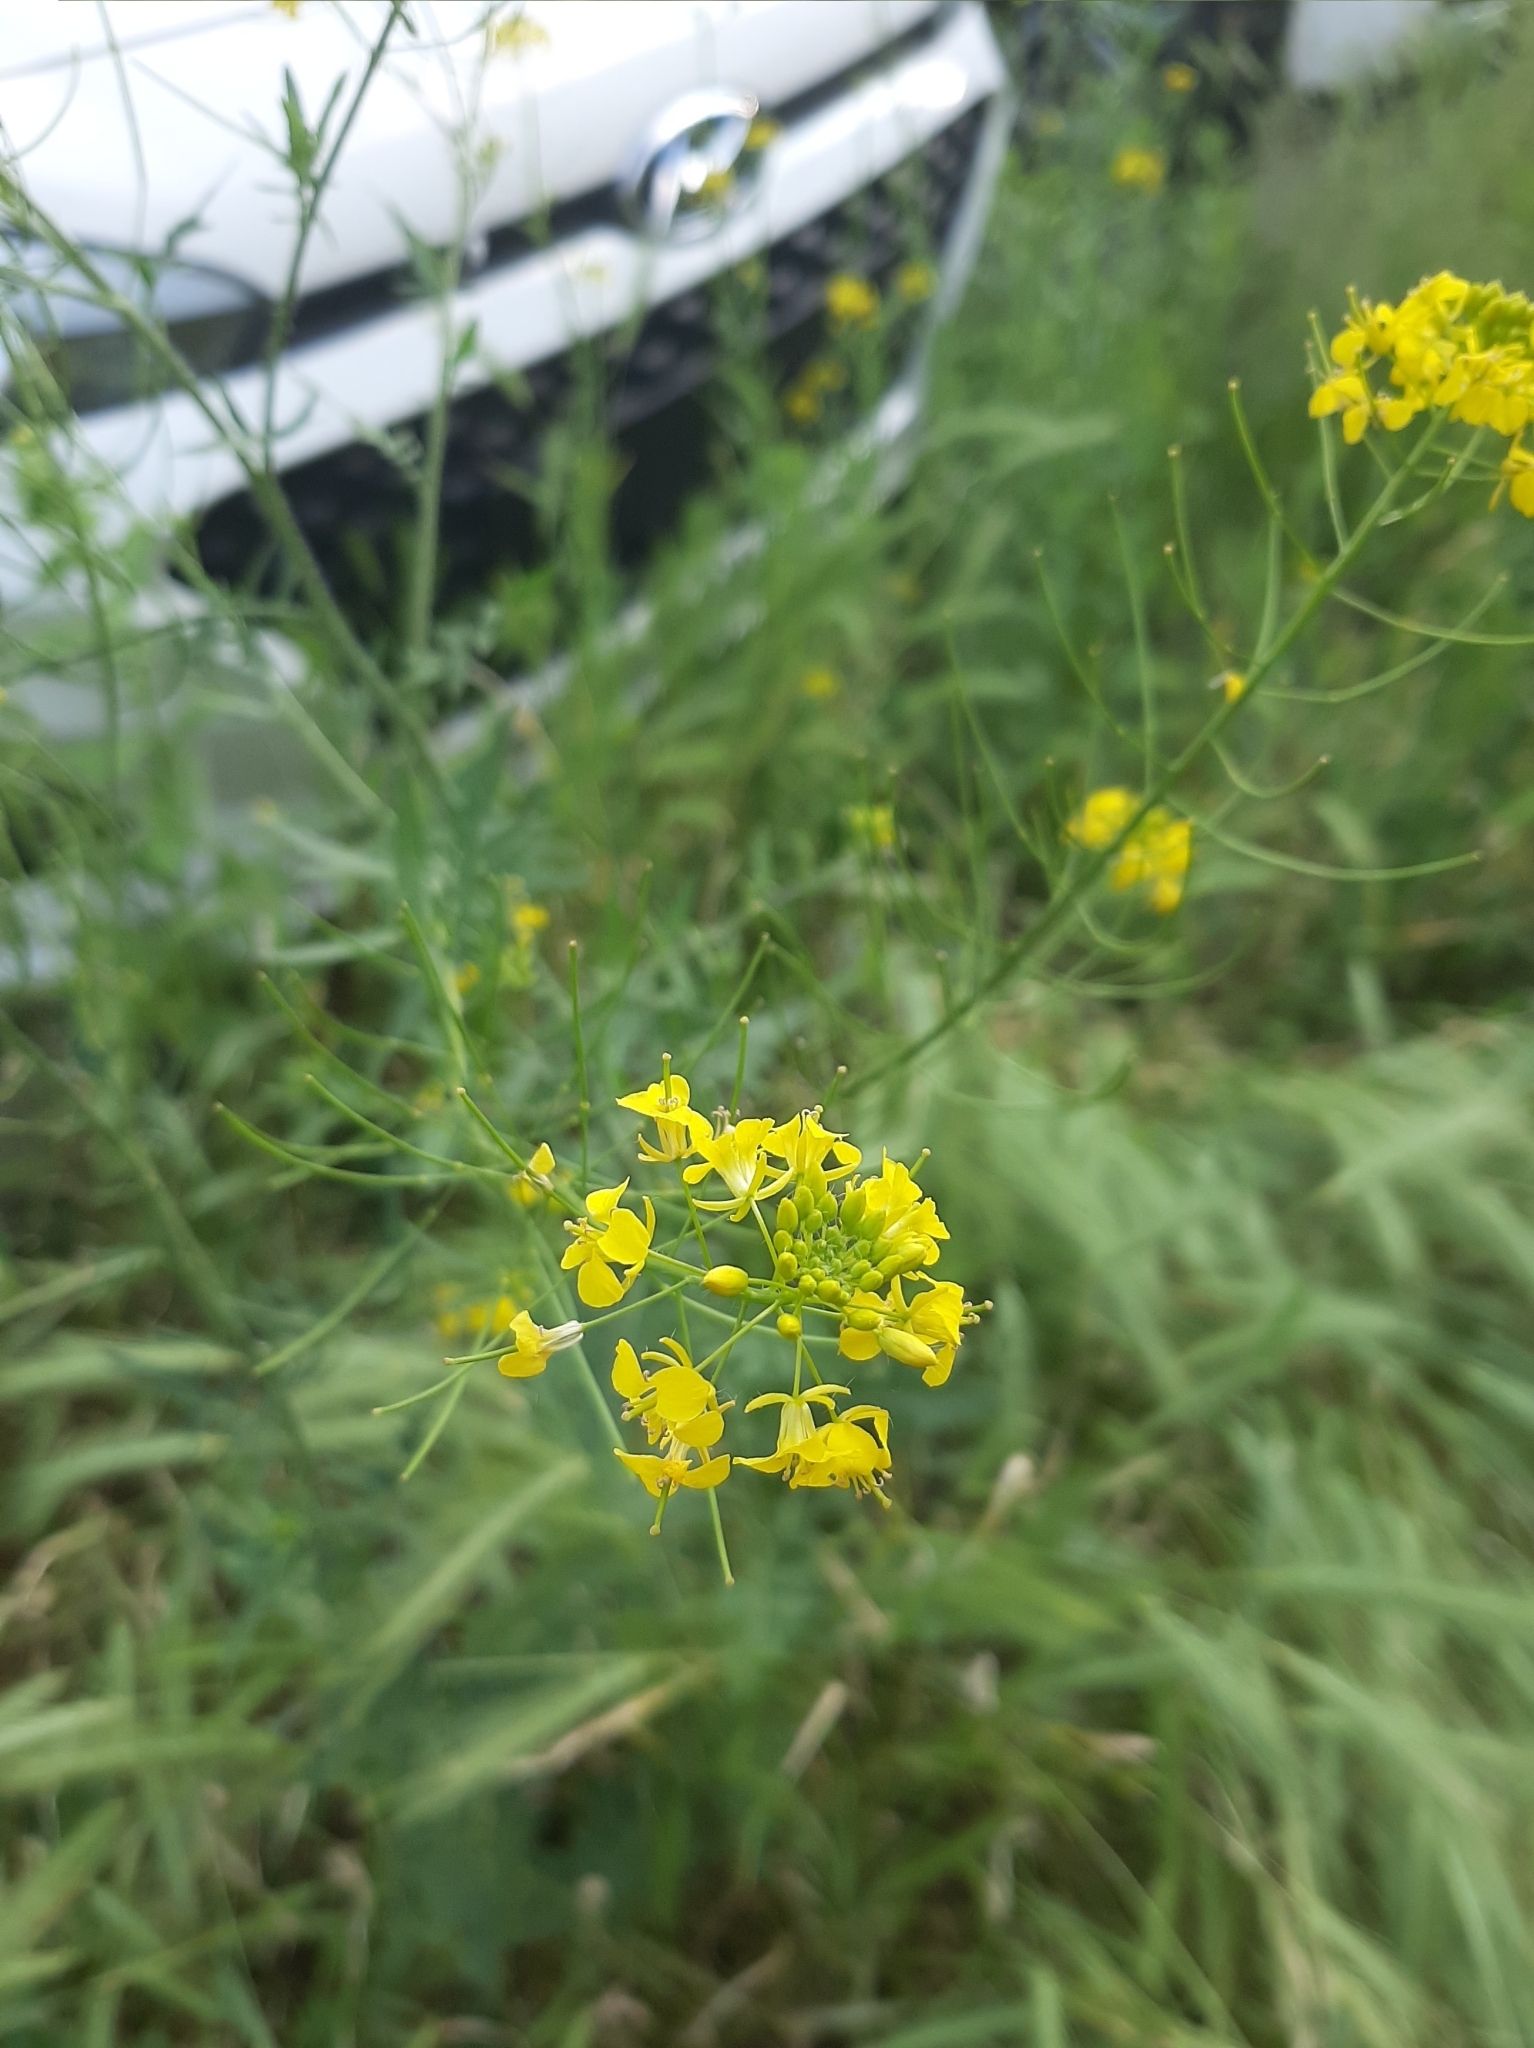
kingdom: Plantae
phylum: Tracheophyta
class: Magnoliopsida
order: Brassicales
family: Brassicaceae
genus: Sisymbrium
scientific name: Sisymbrium loeselii
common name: False london-rocket
